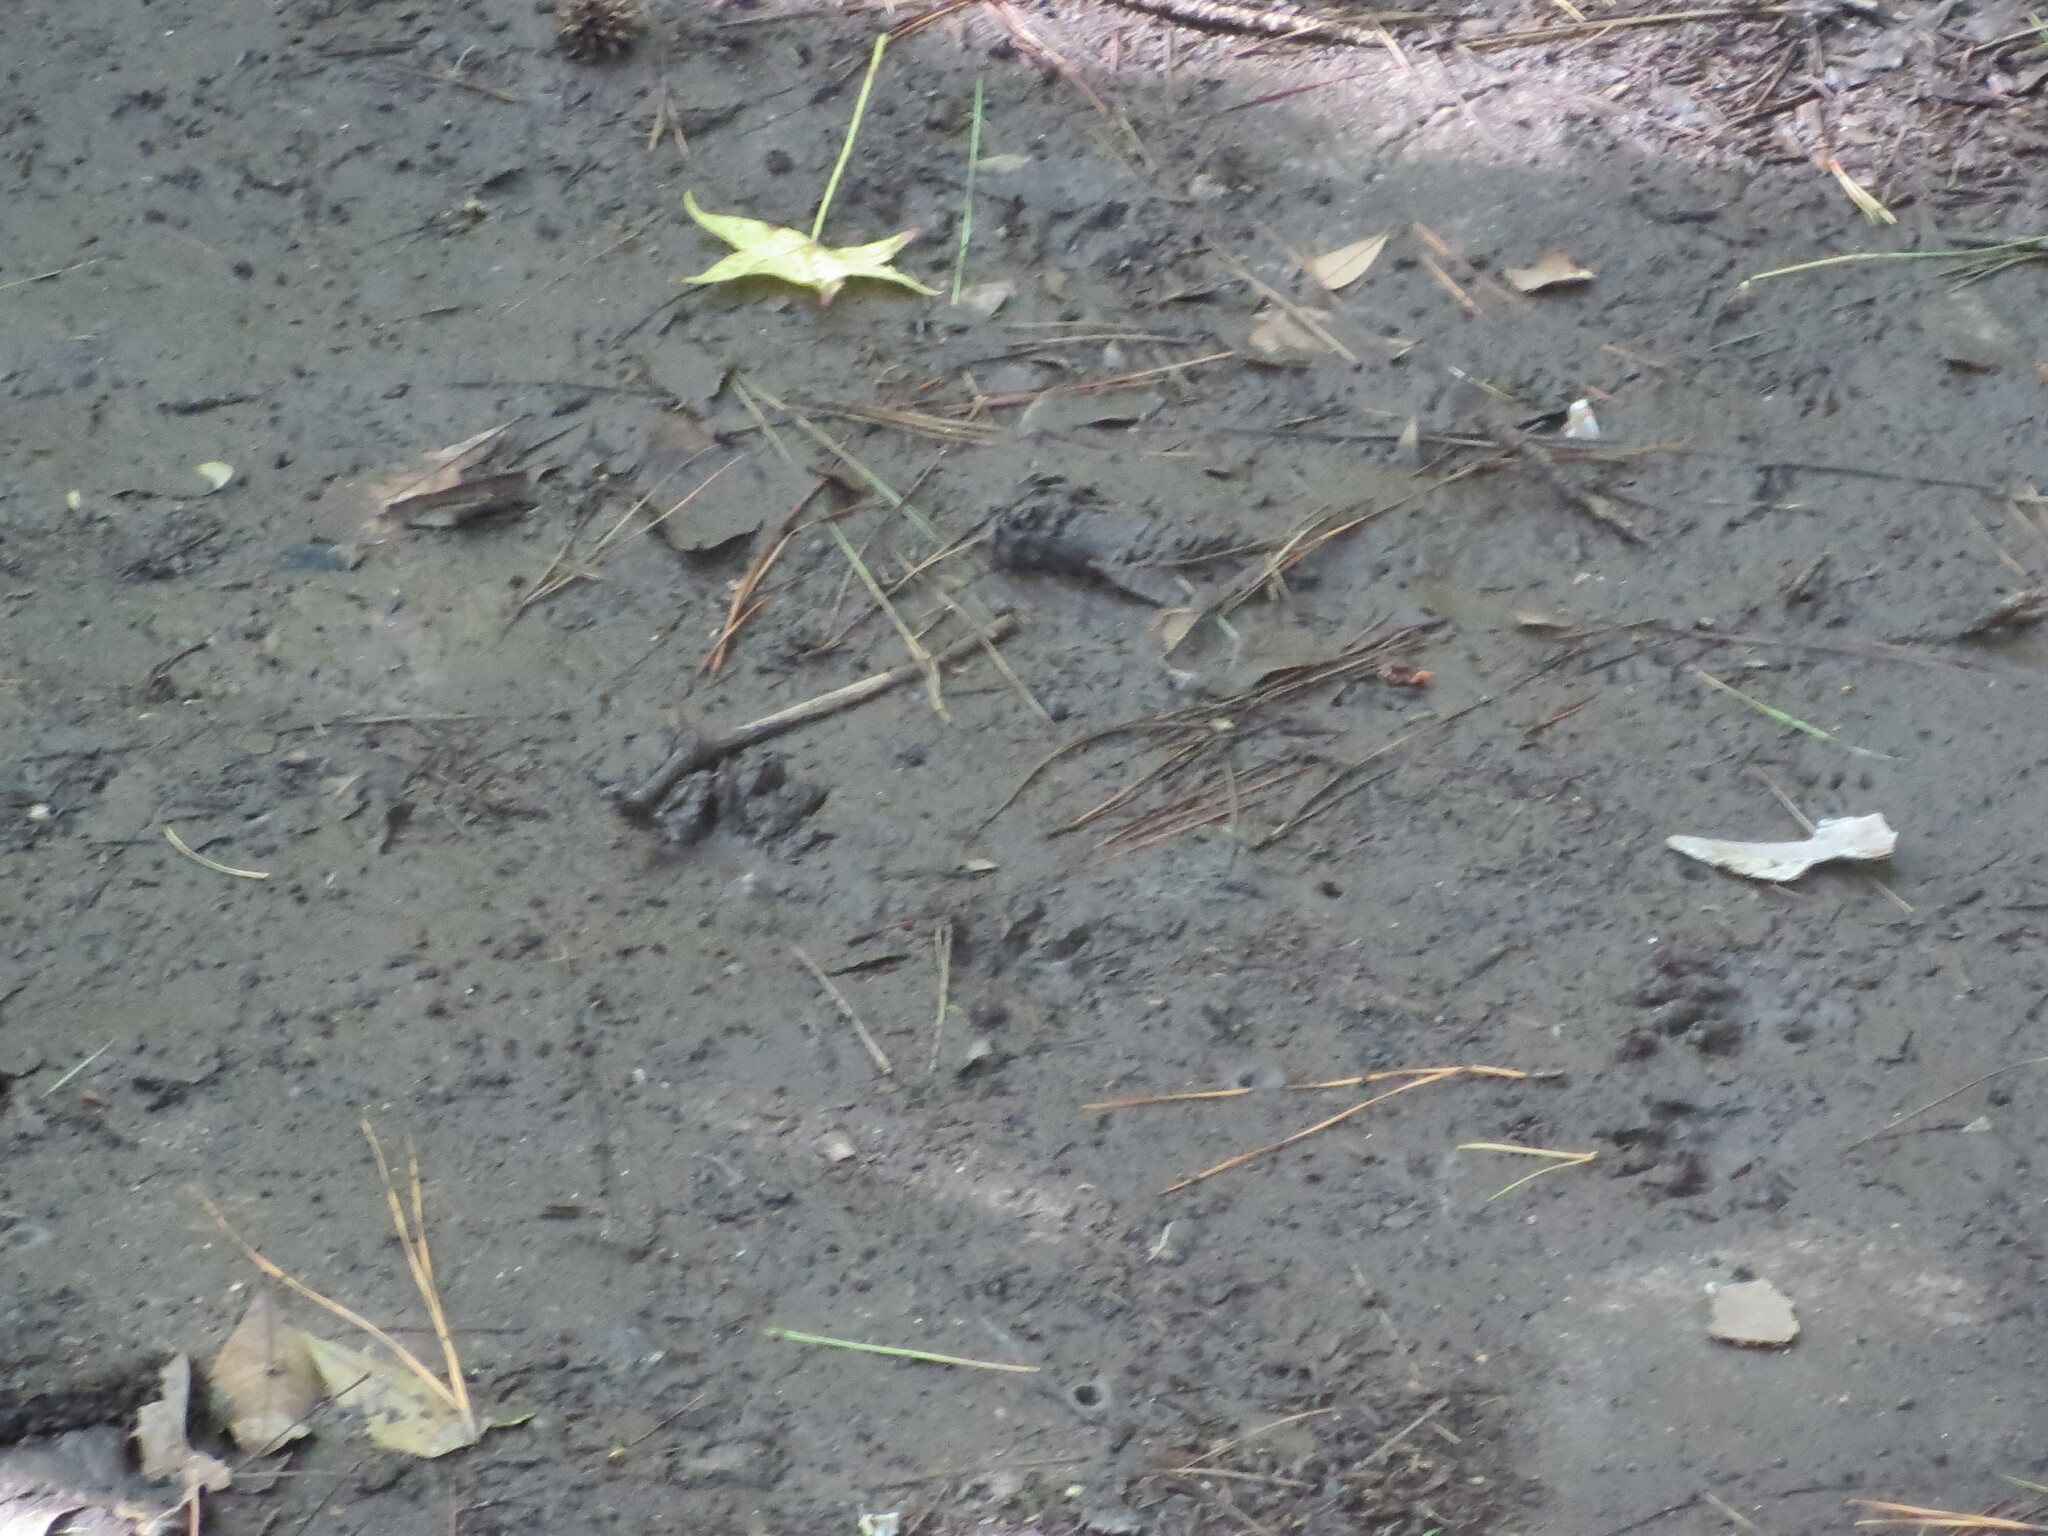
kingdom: Animalia
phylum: Chordata
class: Mammalia
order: Carnivora
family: Procyonidae
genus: Procyon
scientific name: Procyon lotor
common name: Raccoon
